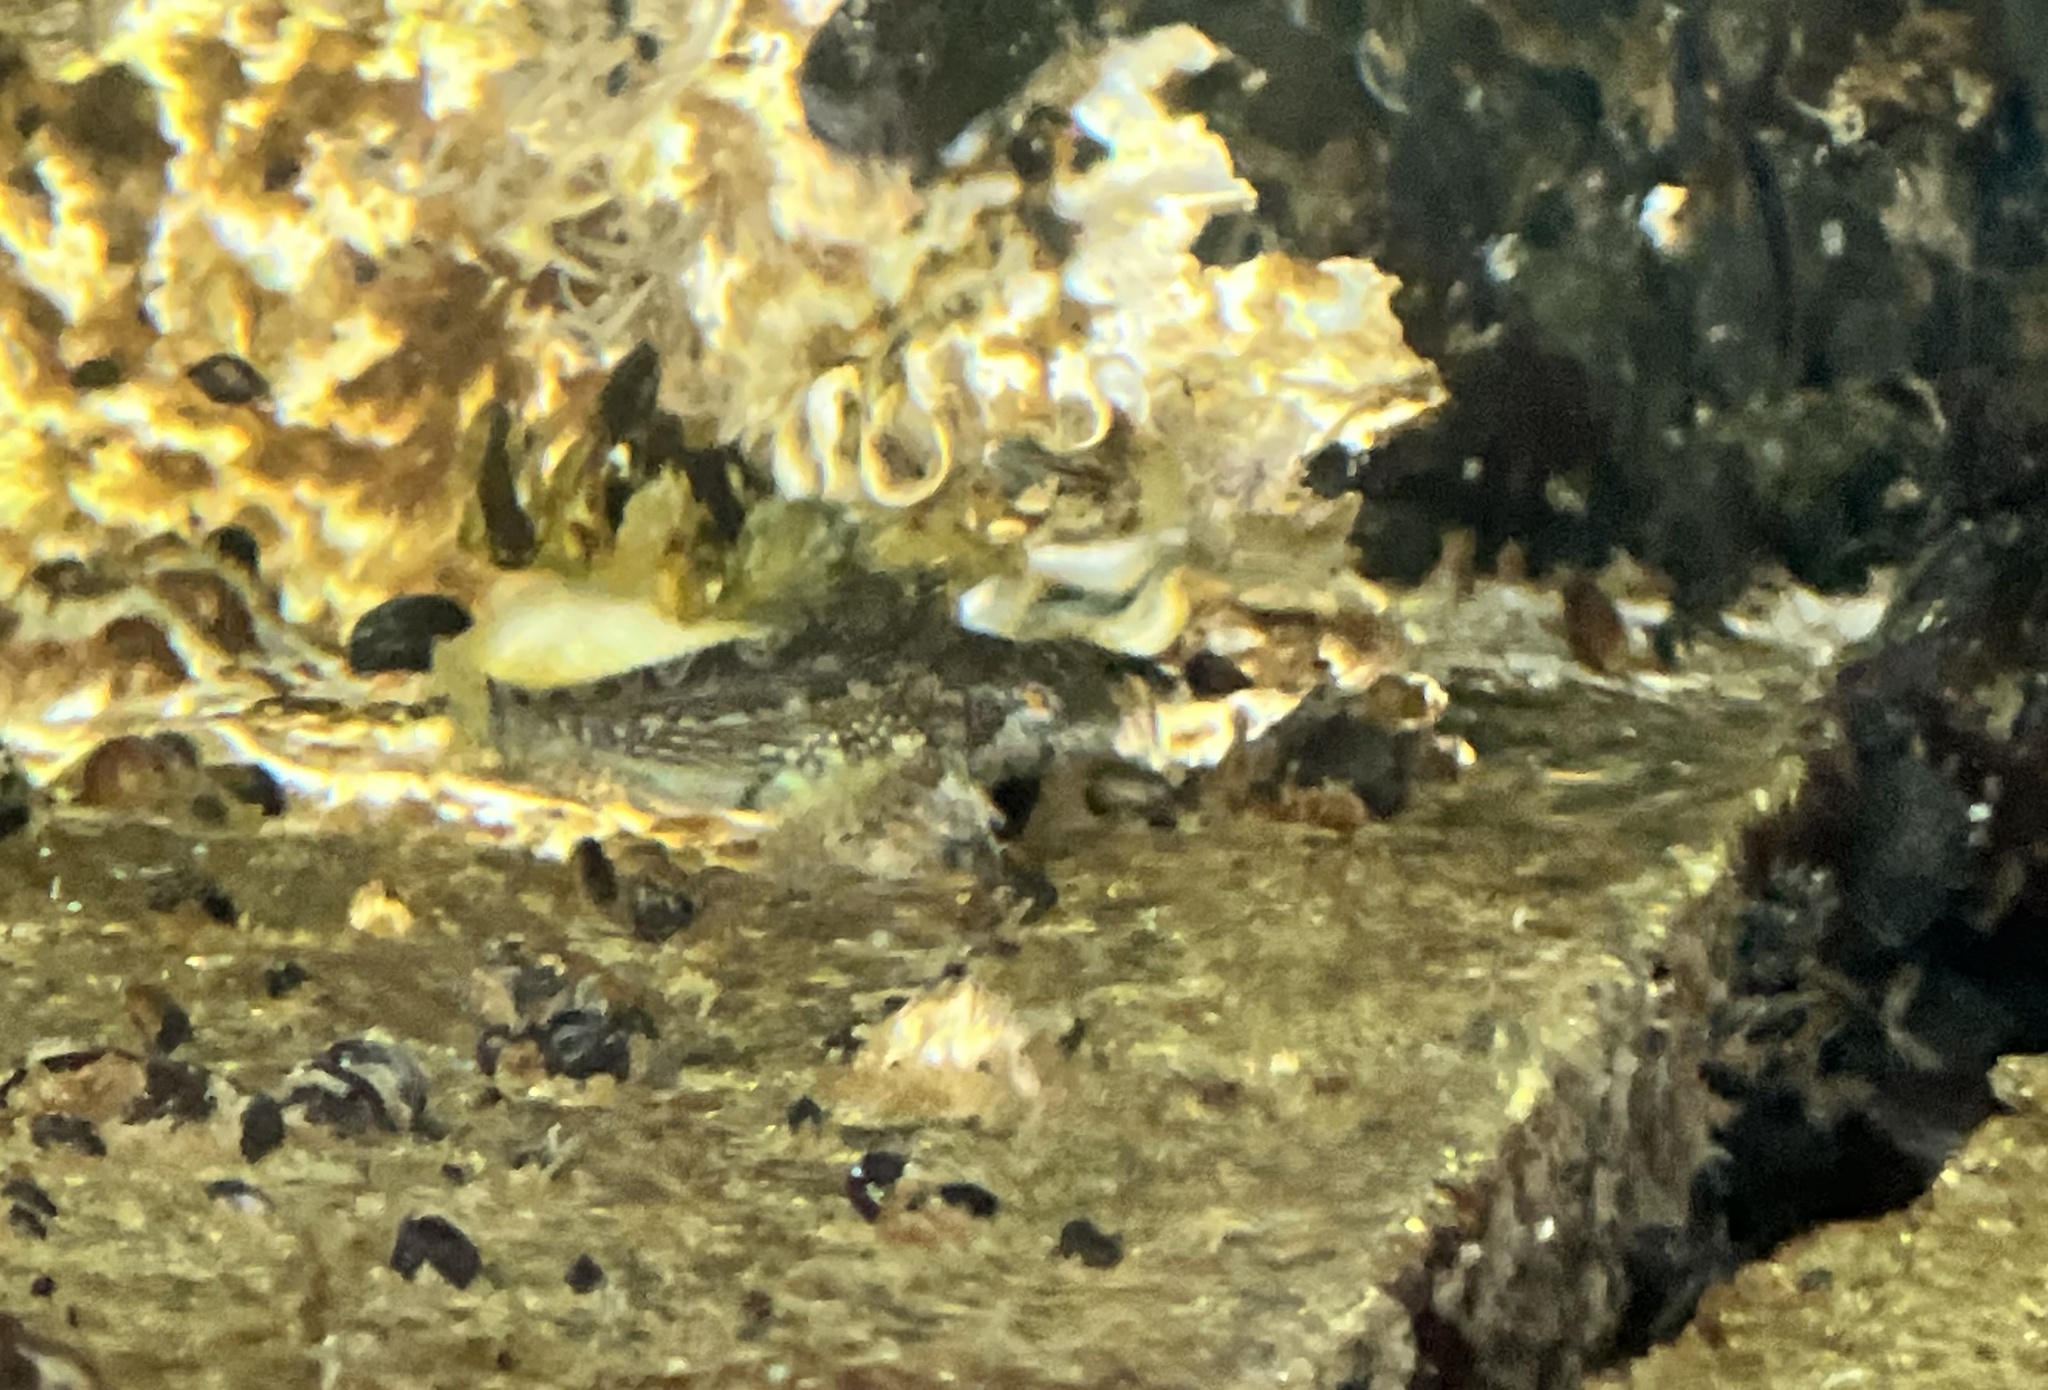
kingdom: Animalia
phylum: Chordata
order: Scorpaeniformes
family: Cottidae
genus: Clinocottus
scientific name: Clinocottus acuticeps
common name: Sharpnose sculpin
